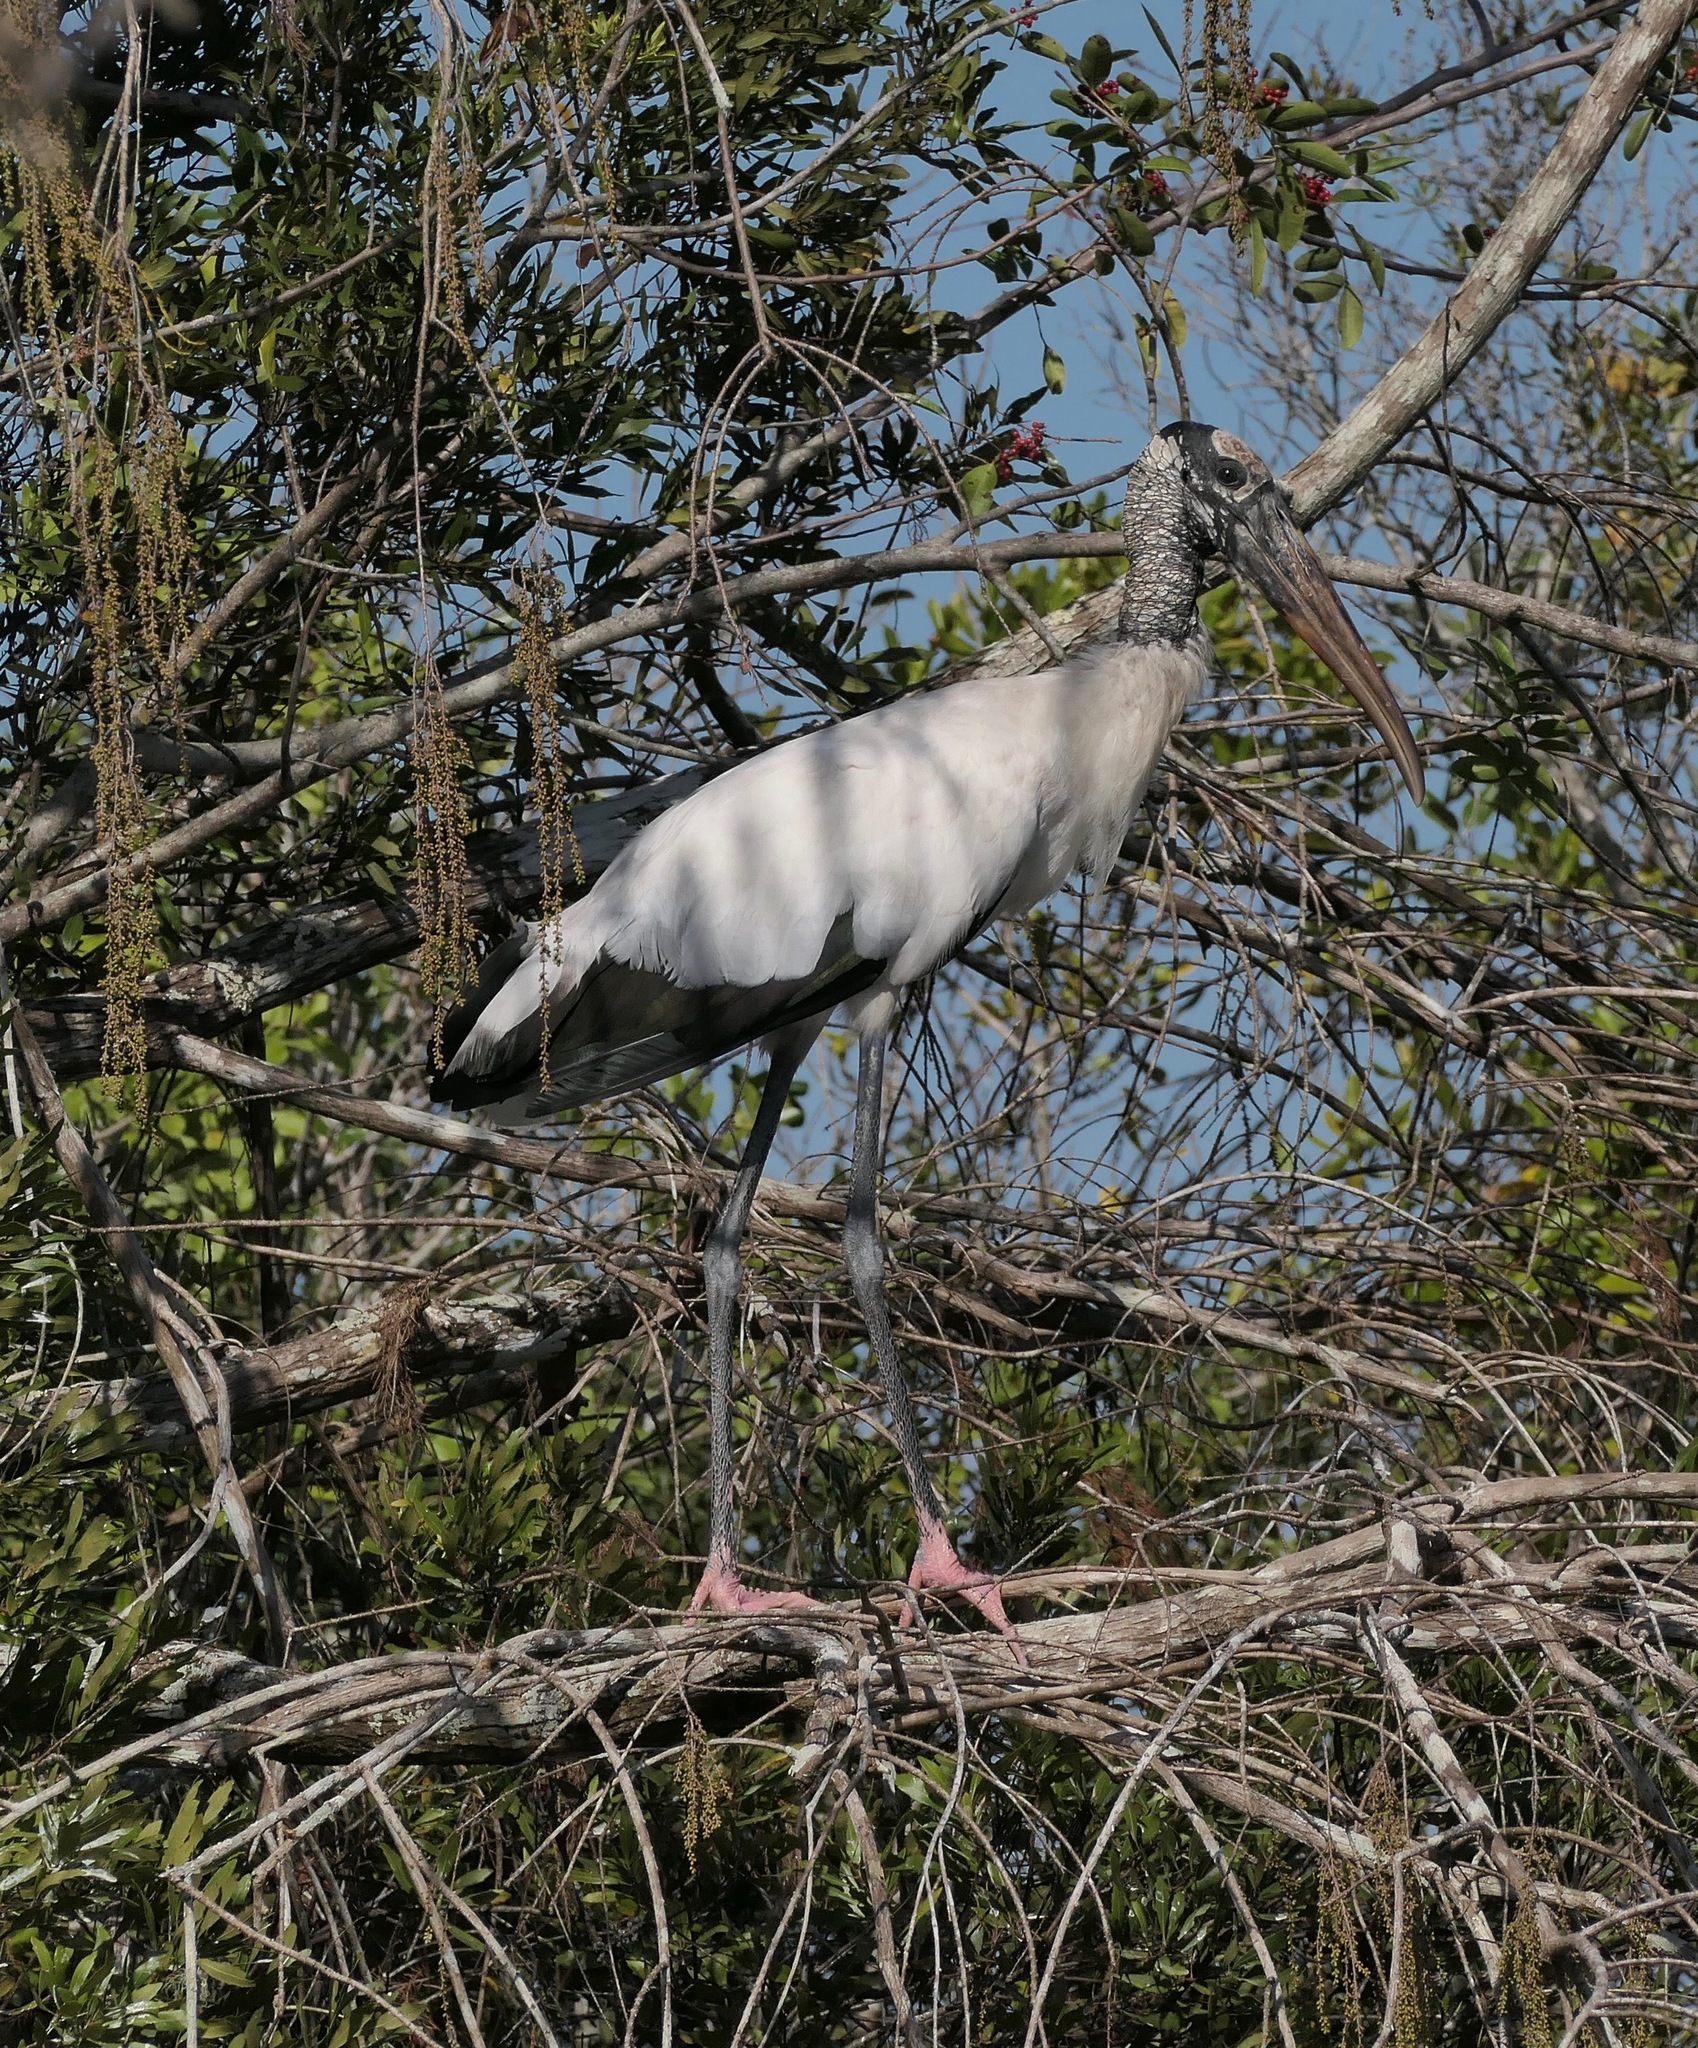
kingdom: Animalia
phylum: Chordata
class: Aves
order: Ciconiiformes
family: Ciconiidae
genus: Mycteria
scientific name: Mycteria americana
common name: Wood stork
